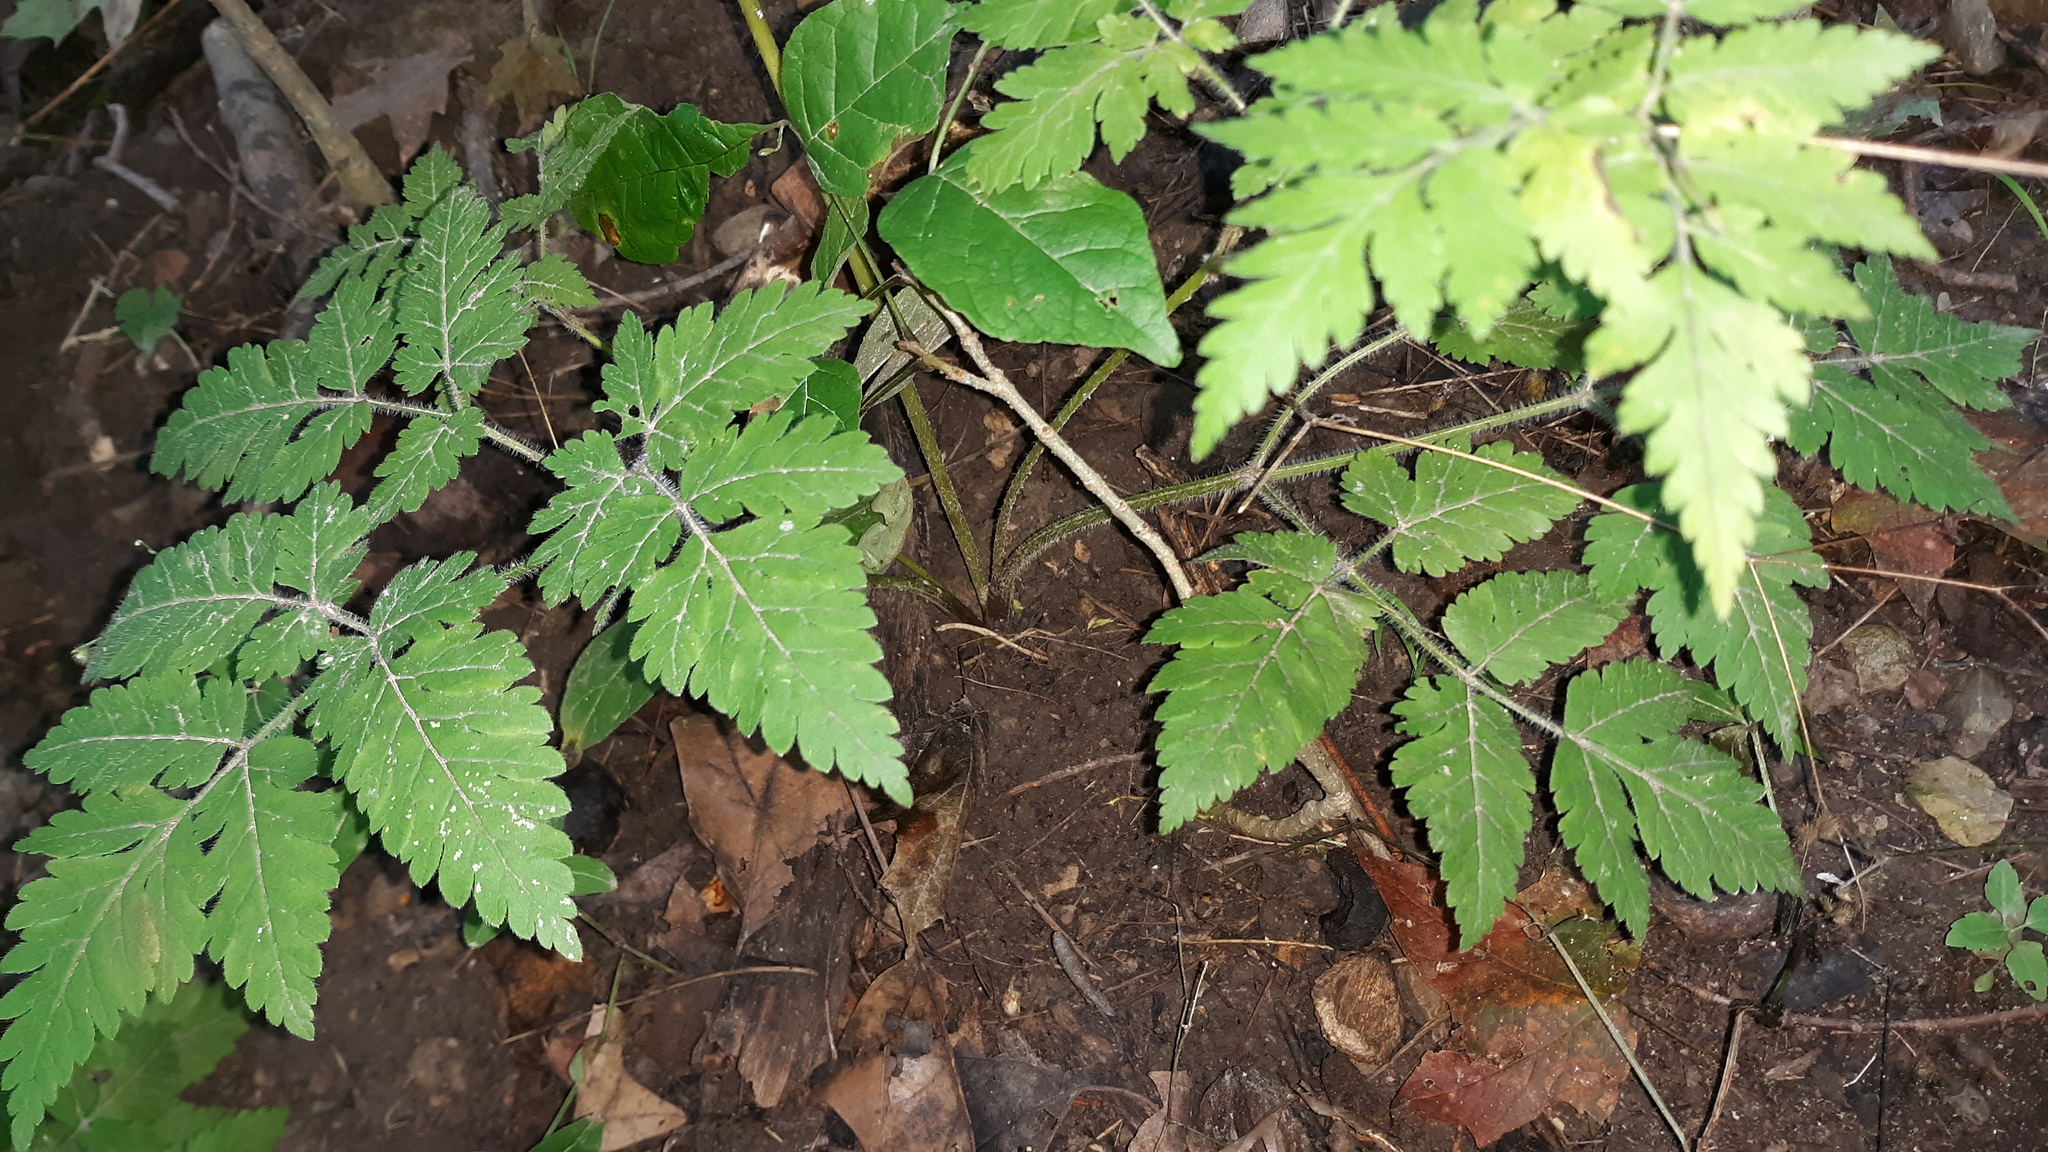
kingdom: Plantae
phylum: Tracheophyta
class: Magnoliopsida
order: Apiales
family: Apiaceae
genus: Osmorhiza
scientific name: Osmorhiza claytonii
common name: Hairy sweet cicely
